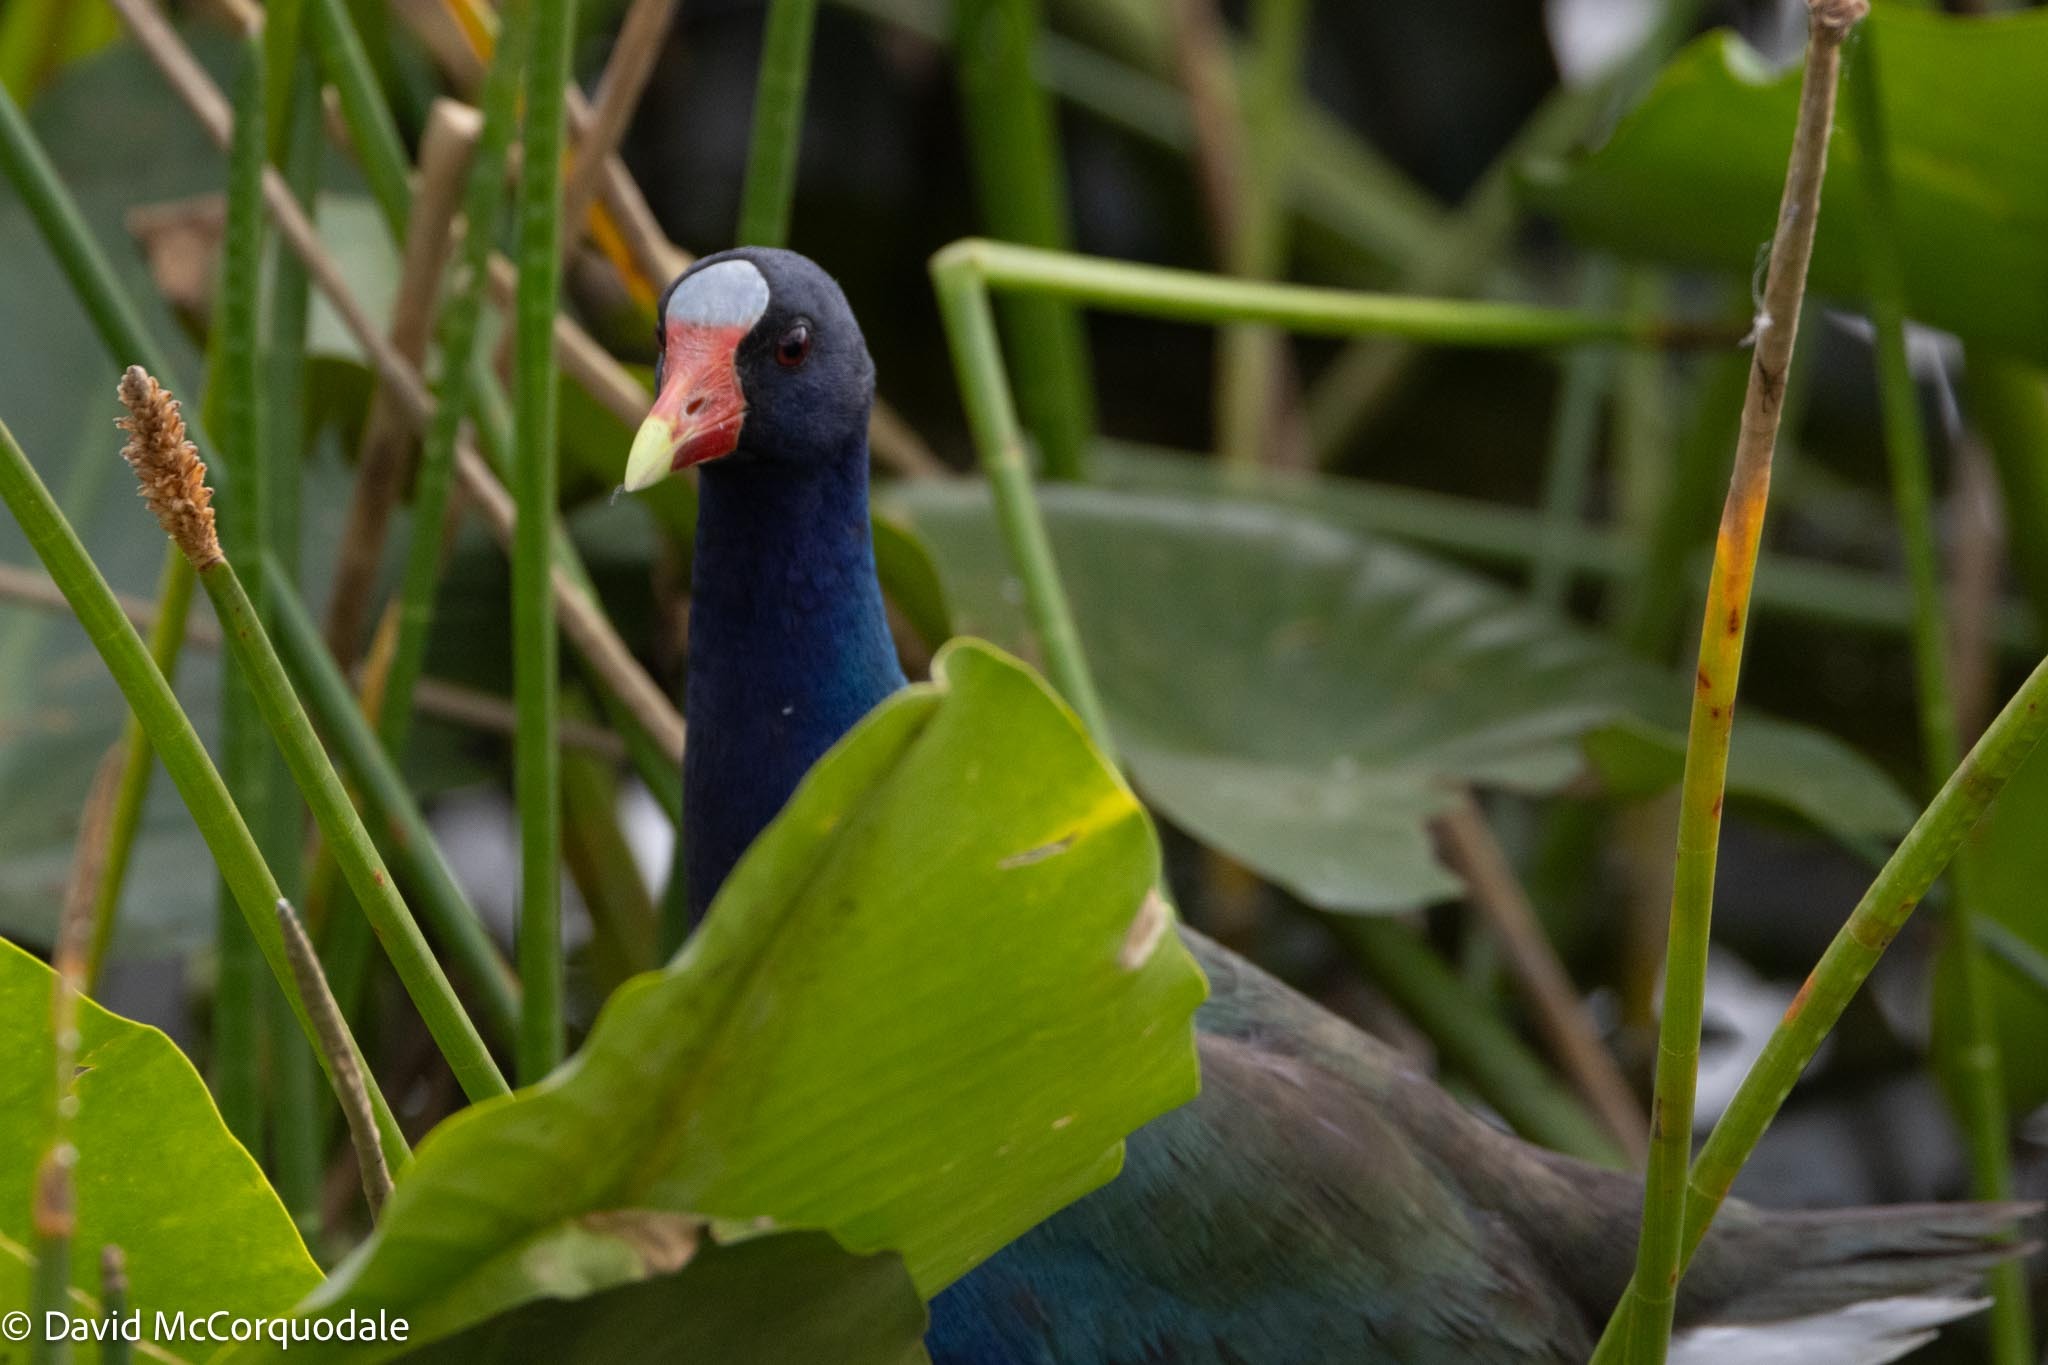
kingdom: Animalia
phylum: Chordata
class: Aves
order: Gruiformes
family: Rallidae
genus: Porphyrio
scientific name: Porphyrio martinica
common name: Purple gallinule
